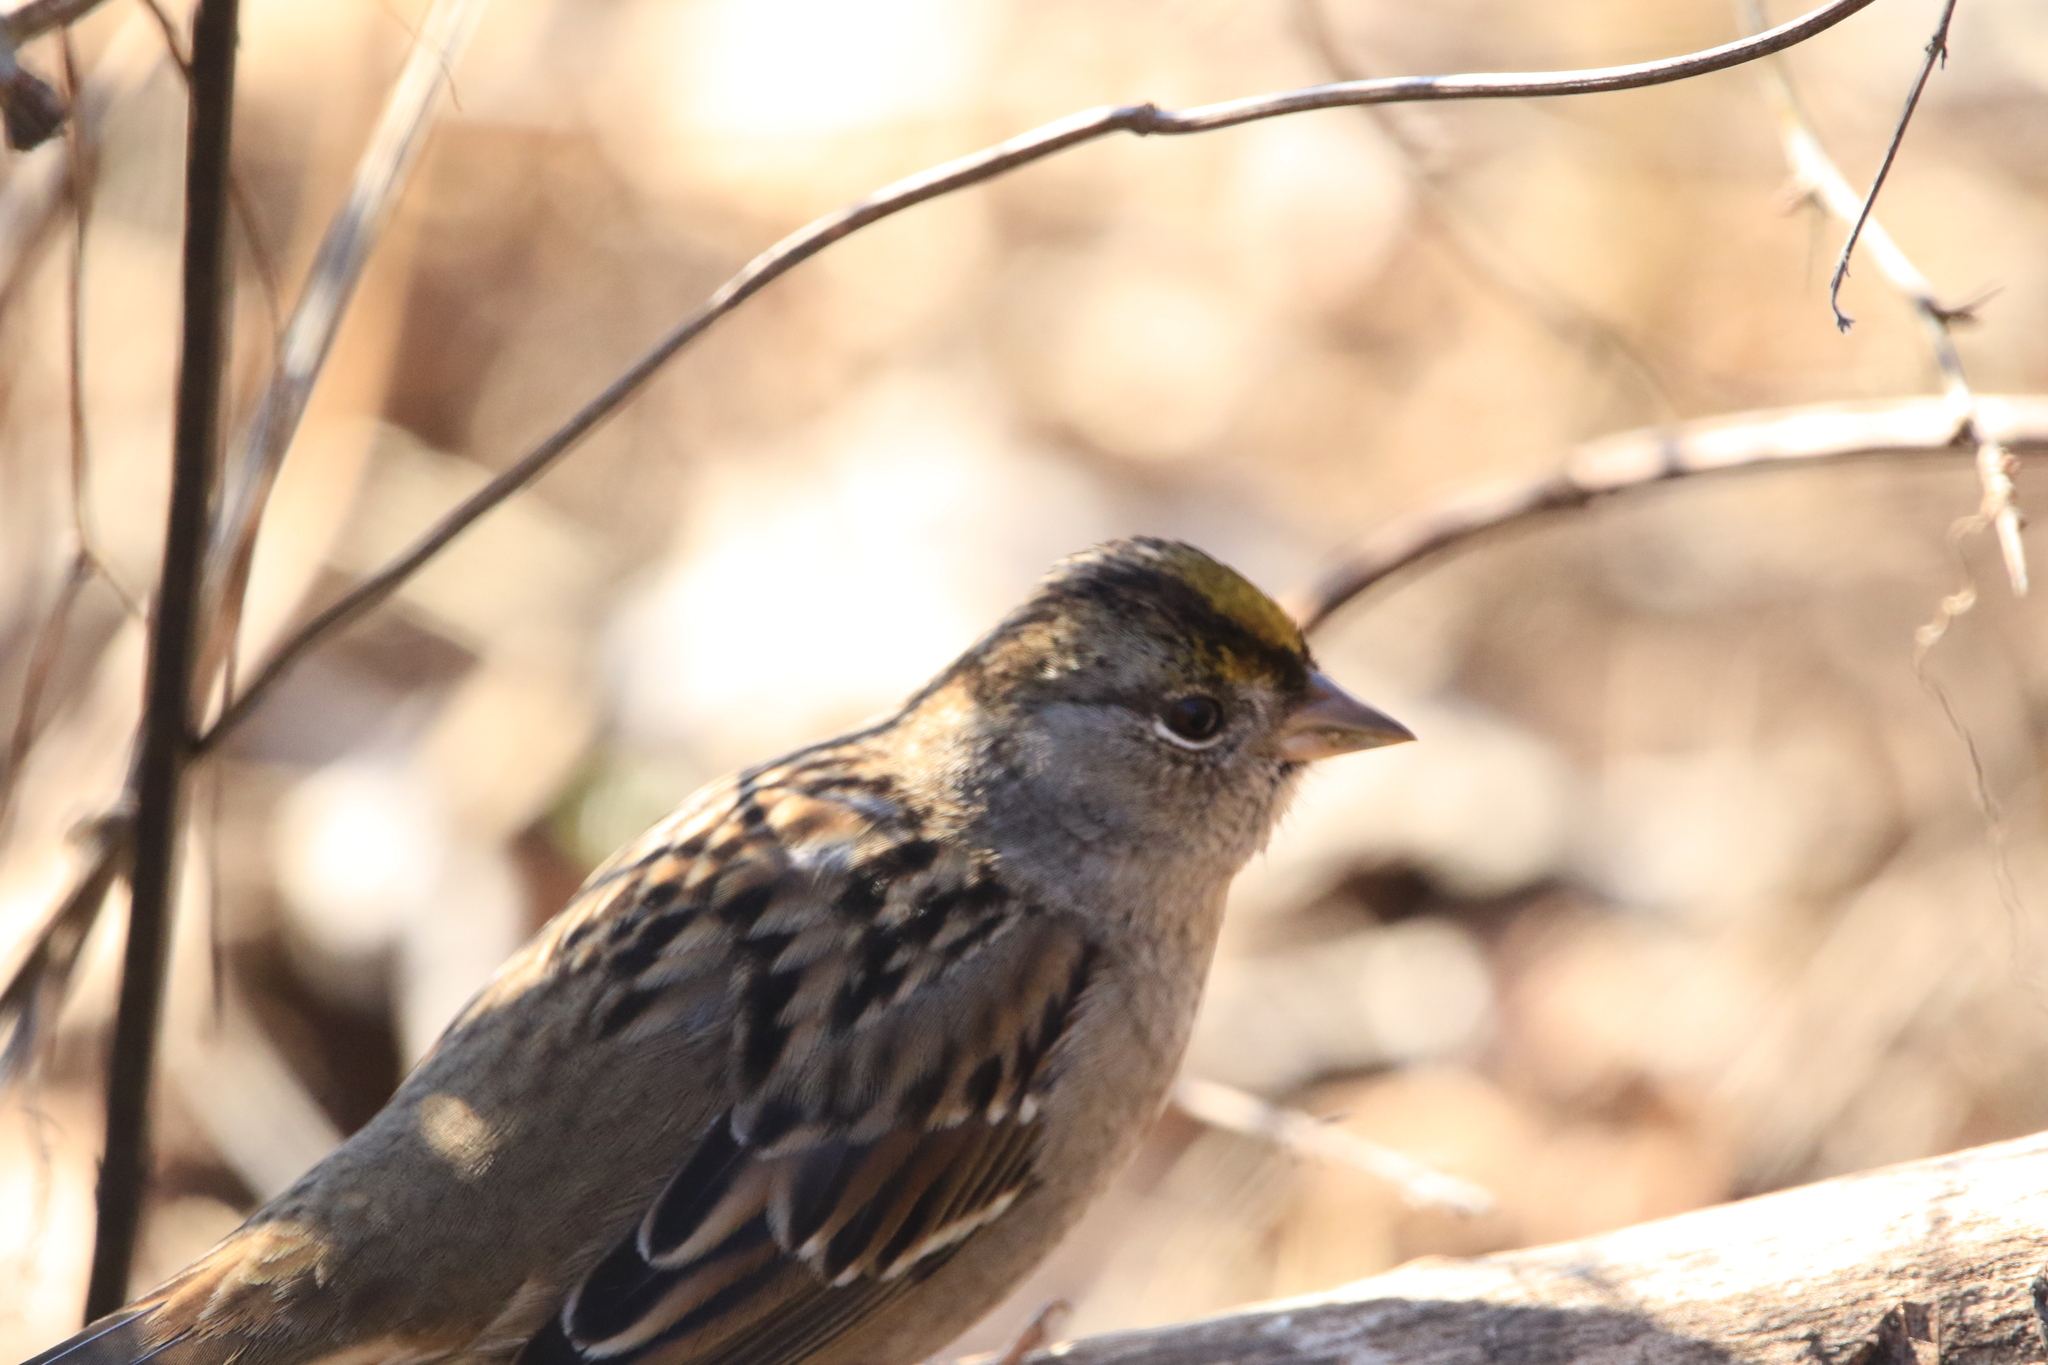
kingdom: Animalia
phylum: Chordata
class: Aves
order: Passeriformes
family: Passerellidae
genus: Zonotrichia
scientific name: Zonotrichia atricapilla
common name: Golden-crowned sparrow
